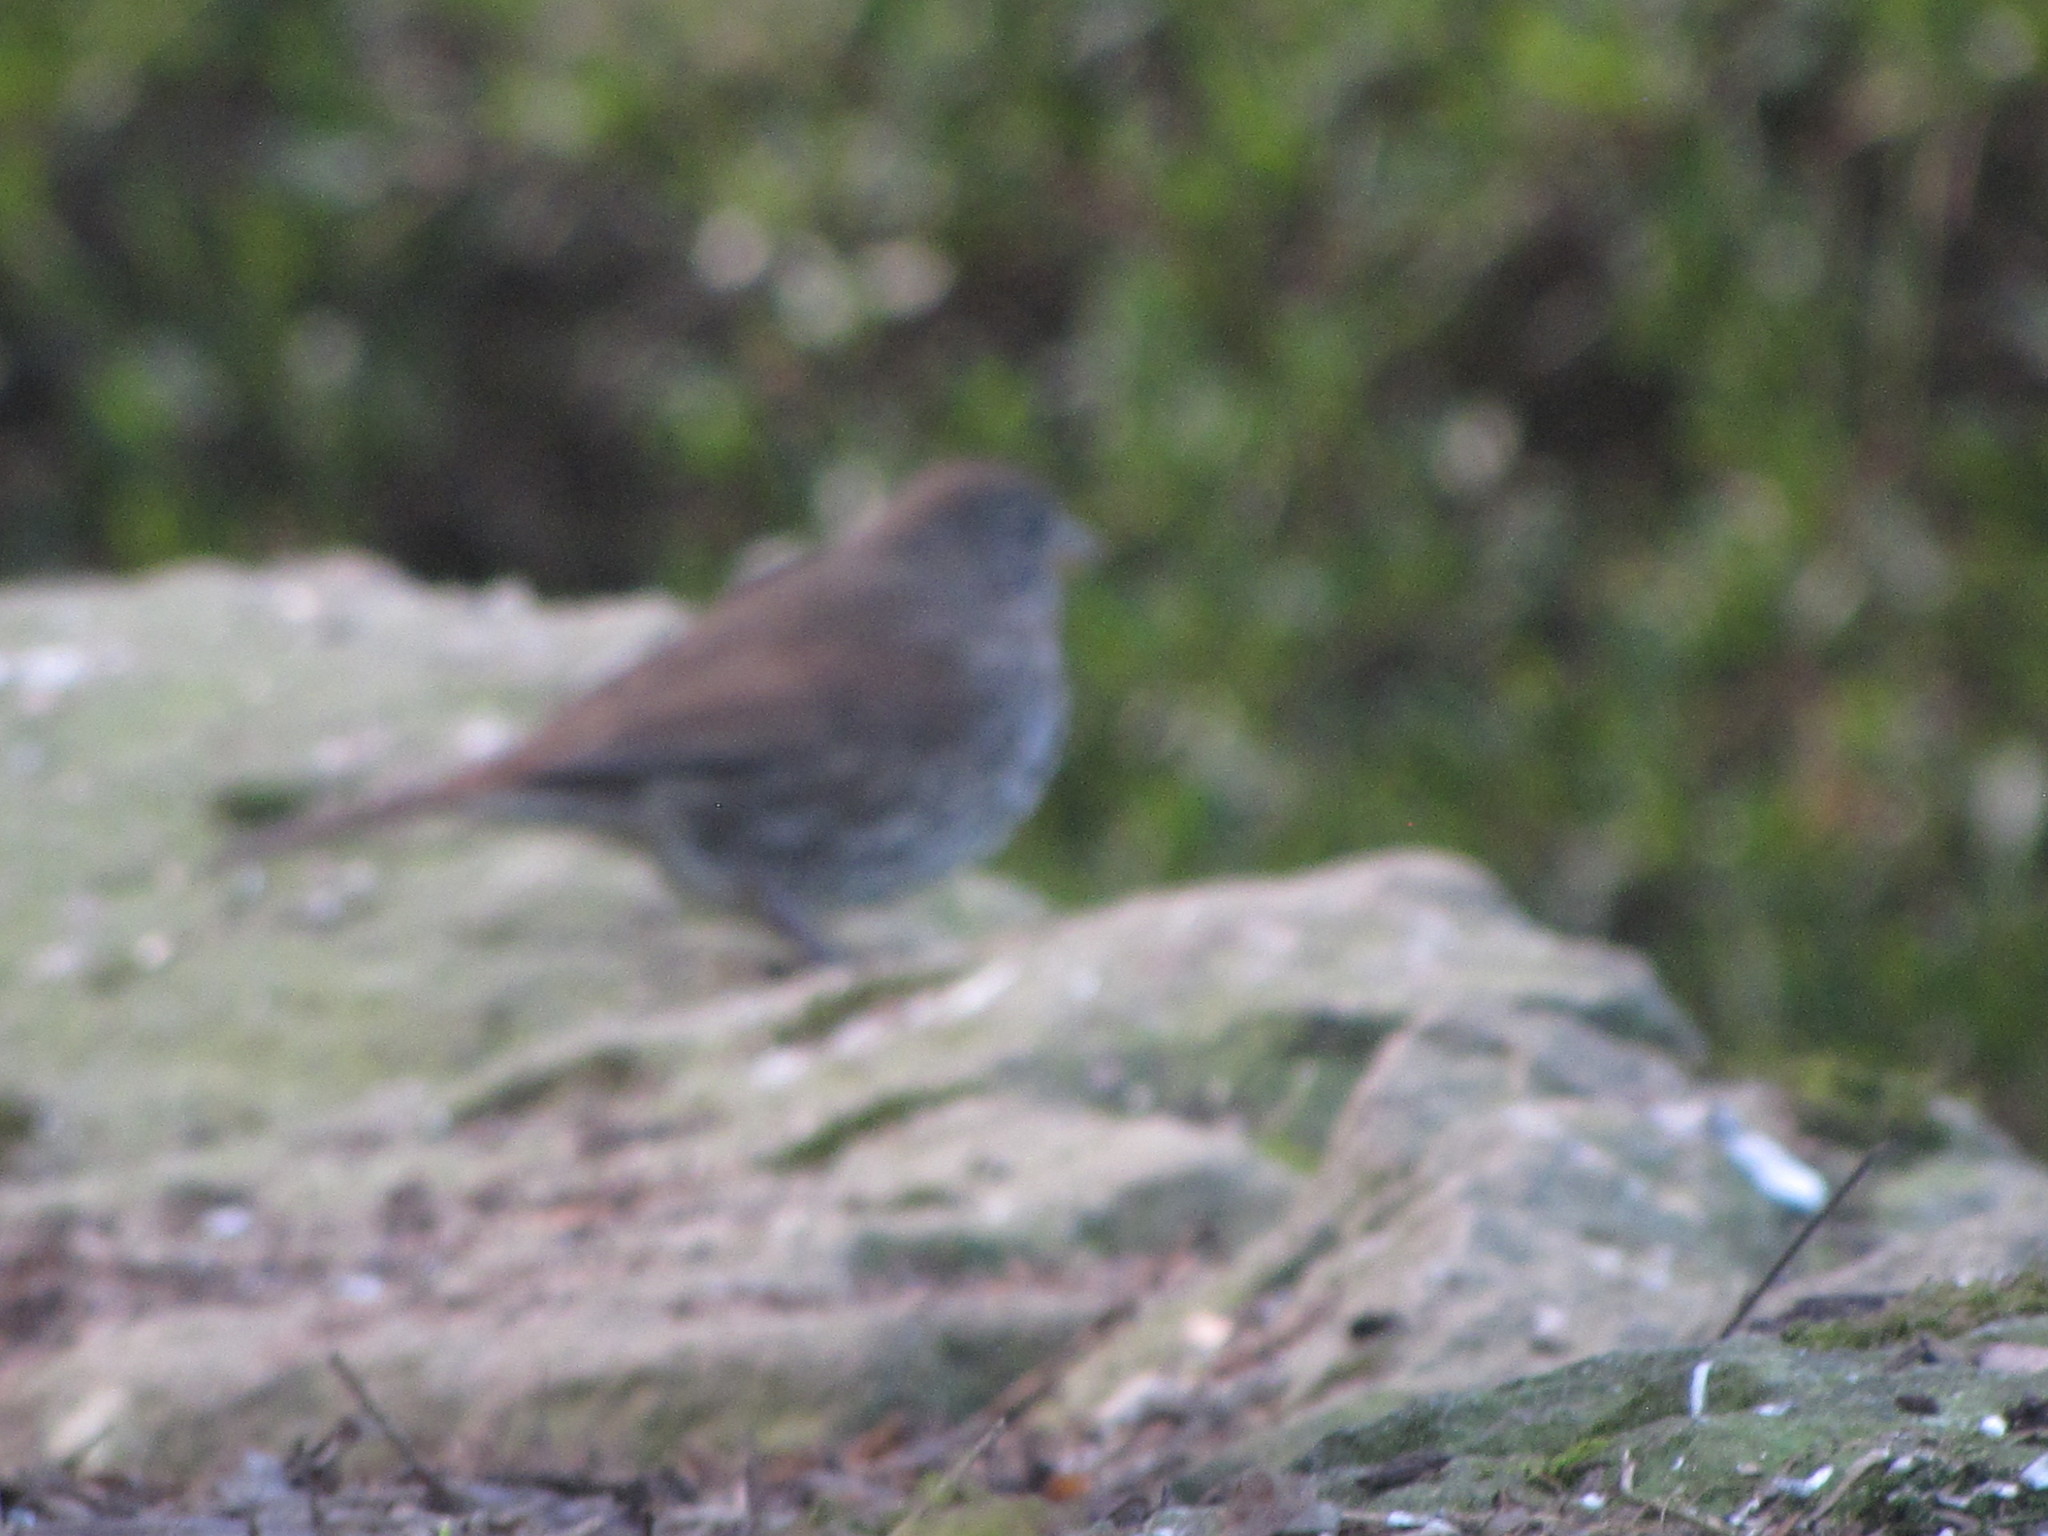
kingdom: Animalia
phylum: Chordata
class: Aves
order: Passeriformes
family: Passerellidae
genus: Passerella
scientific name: Passerella iliaca
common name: Fox sparrow
